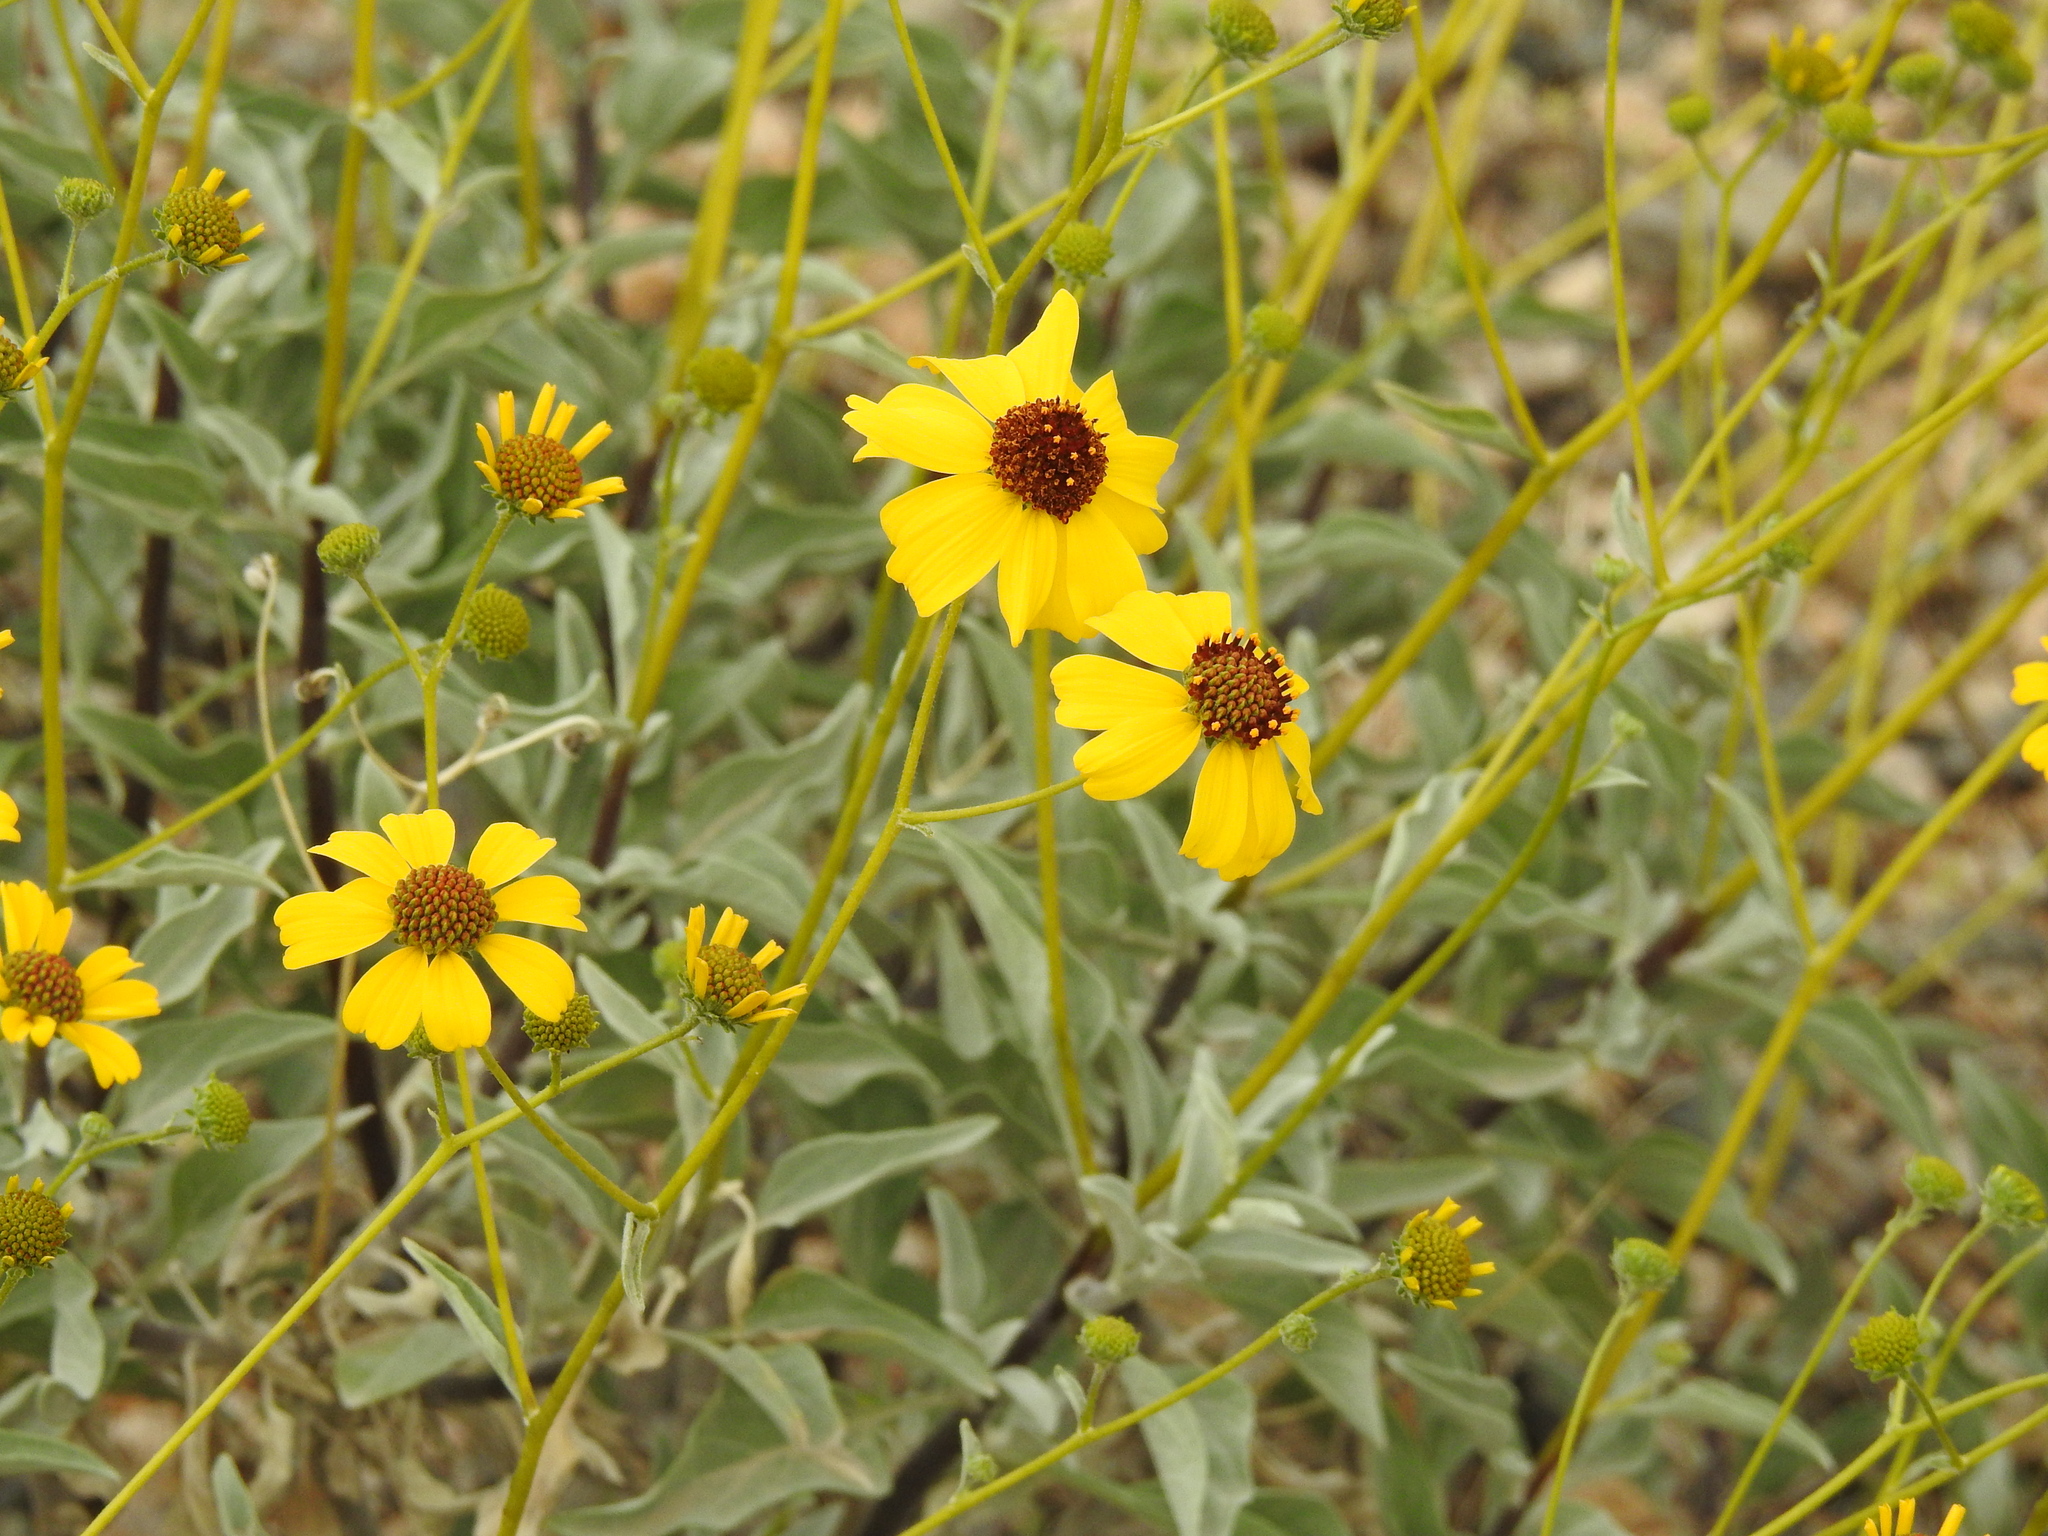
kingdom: Plantae
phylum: Tracheophyta
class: Magnoliopsida
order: Asterales
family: Asteraceae
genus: Encelia
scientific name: Encelia farinosa
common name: Brittlebush
